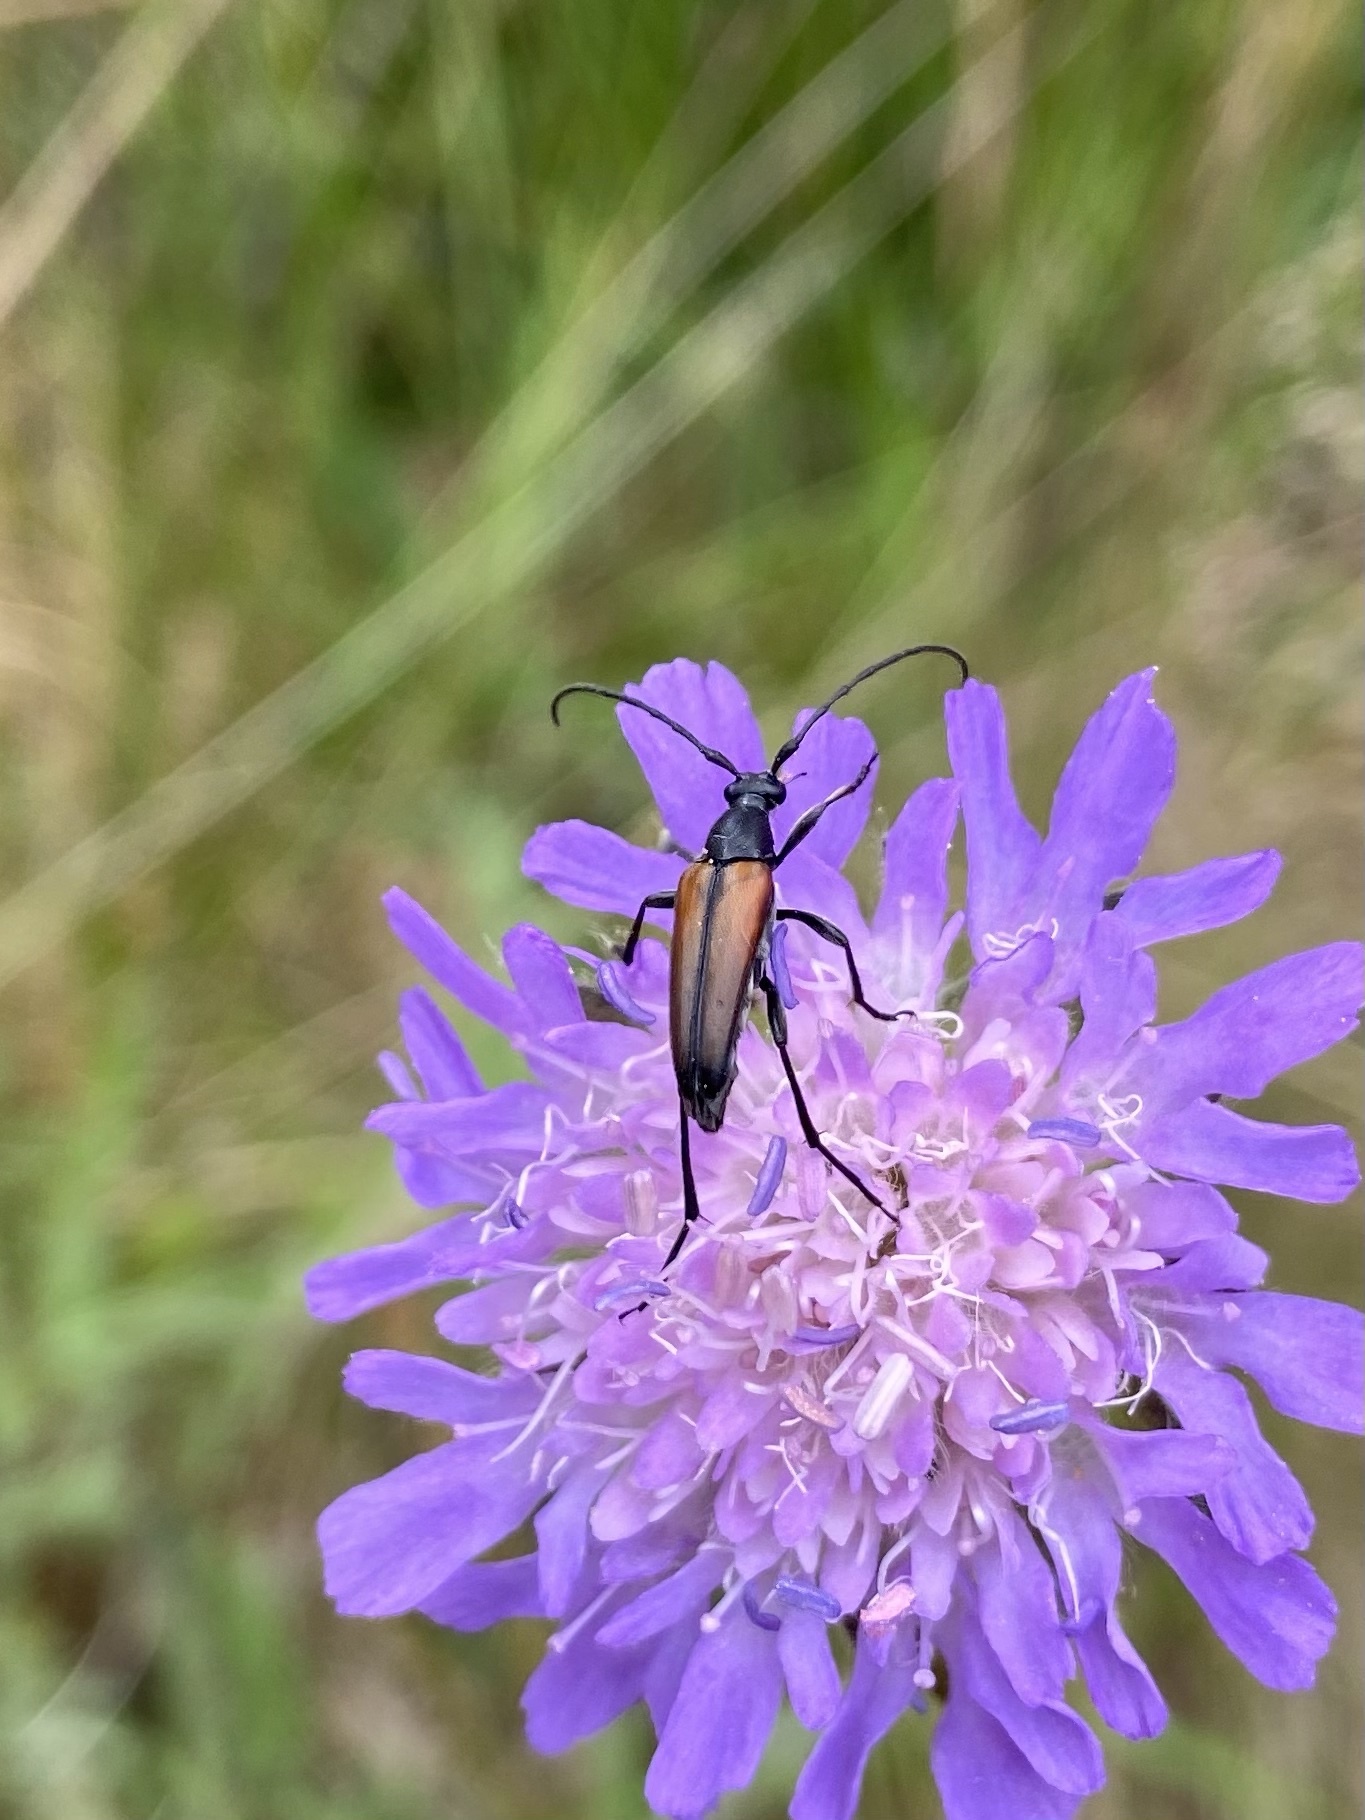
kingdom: Animalia
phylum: Arthropoda
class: Insecta
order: Coleoptera
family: Cerambycidae
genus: Stenurella
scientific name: Stenurella melanura
